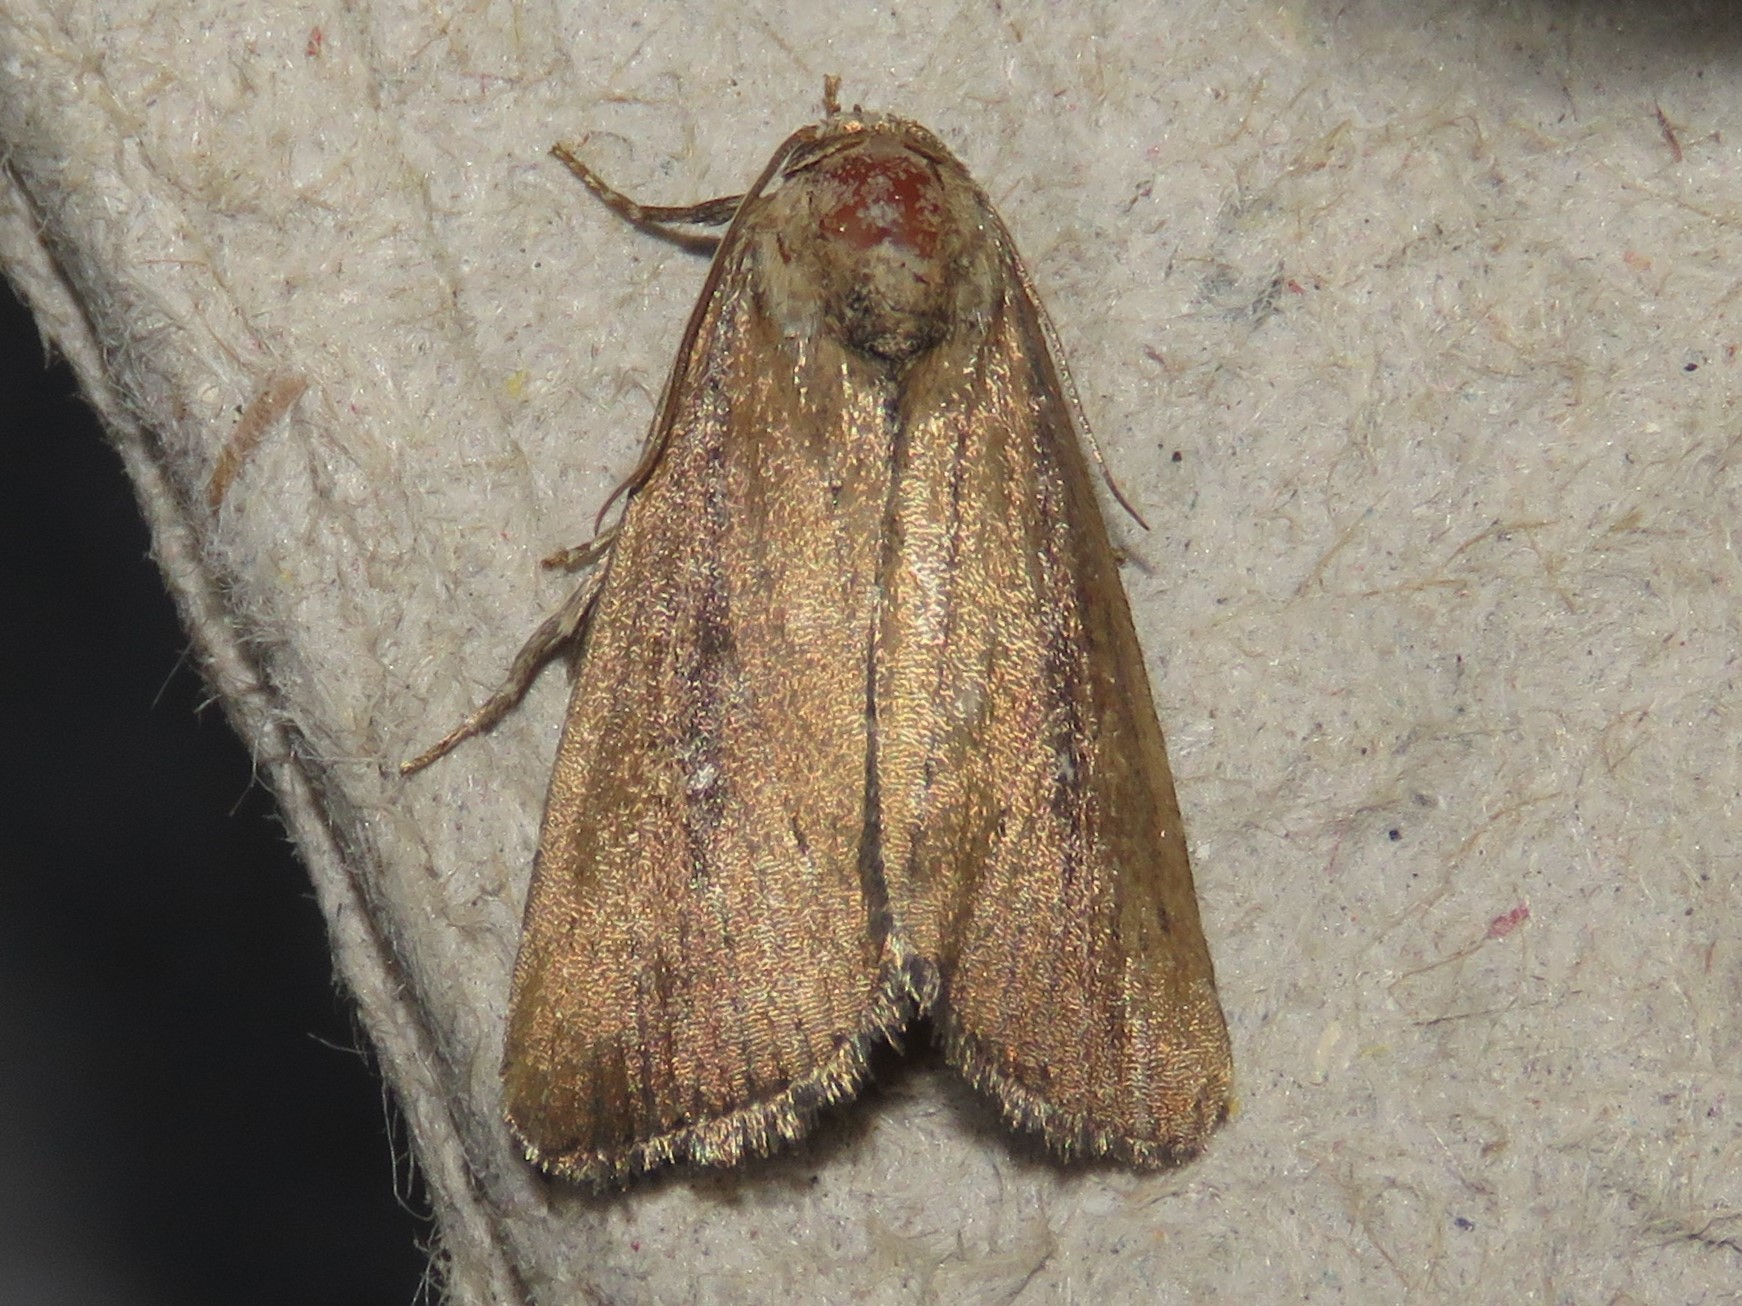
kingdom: Animalia
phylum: Arthropoda
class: Insecta
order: Lepidoptera
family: Noctuidae
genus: Condica
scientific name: Condica videns
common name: White-dotted groundling
